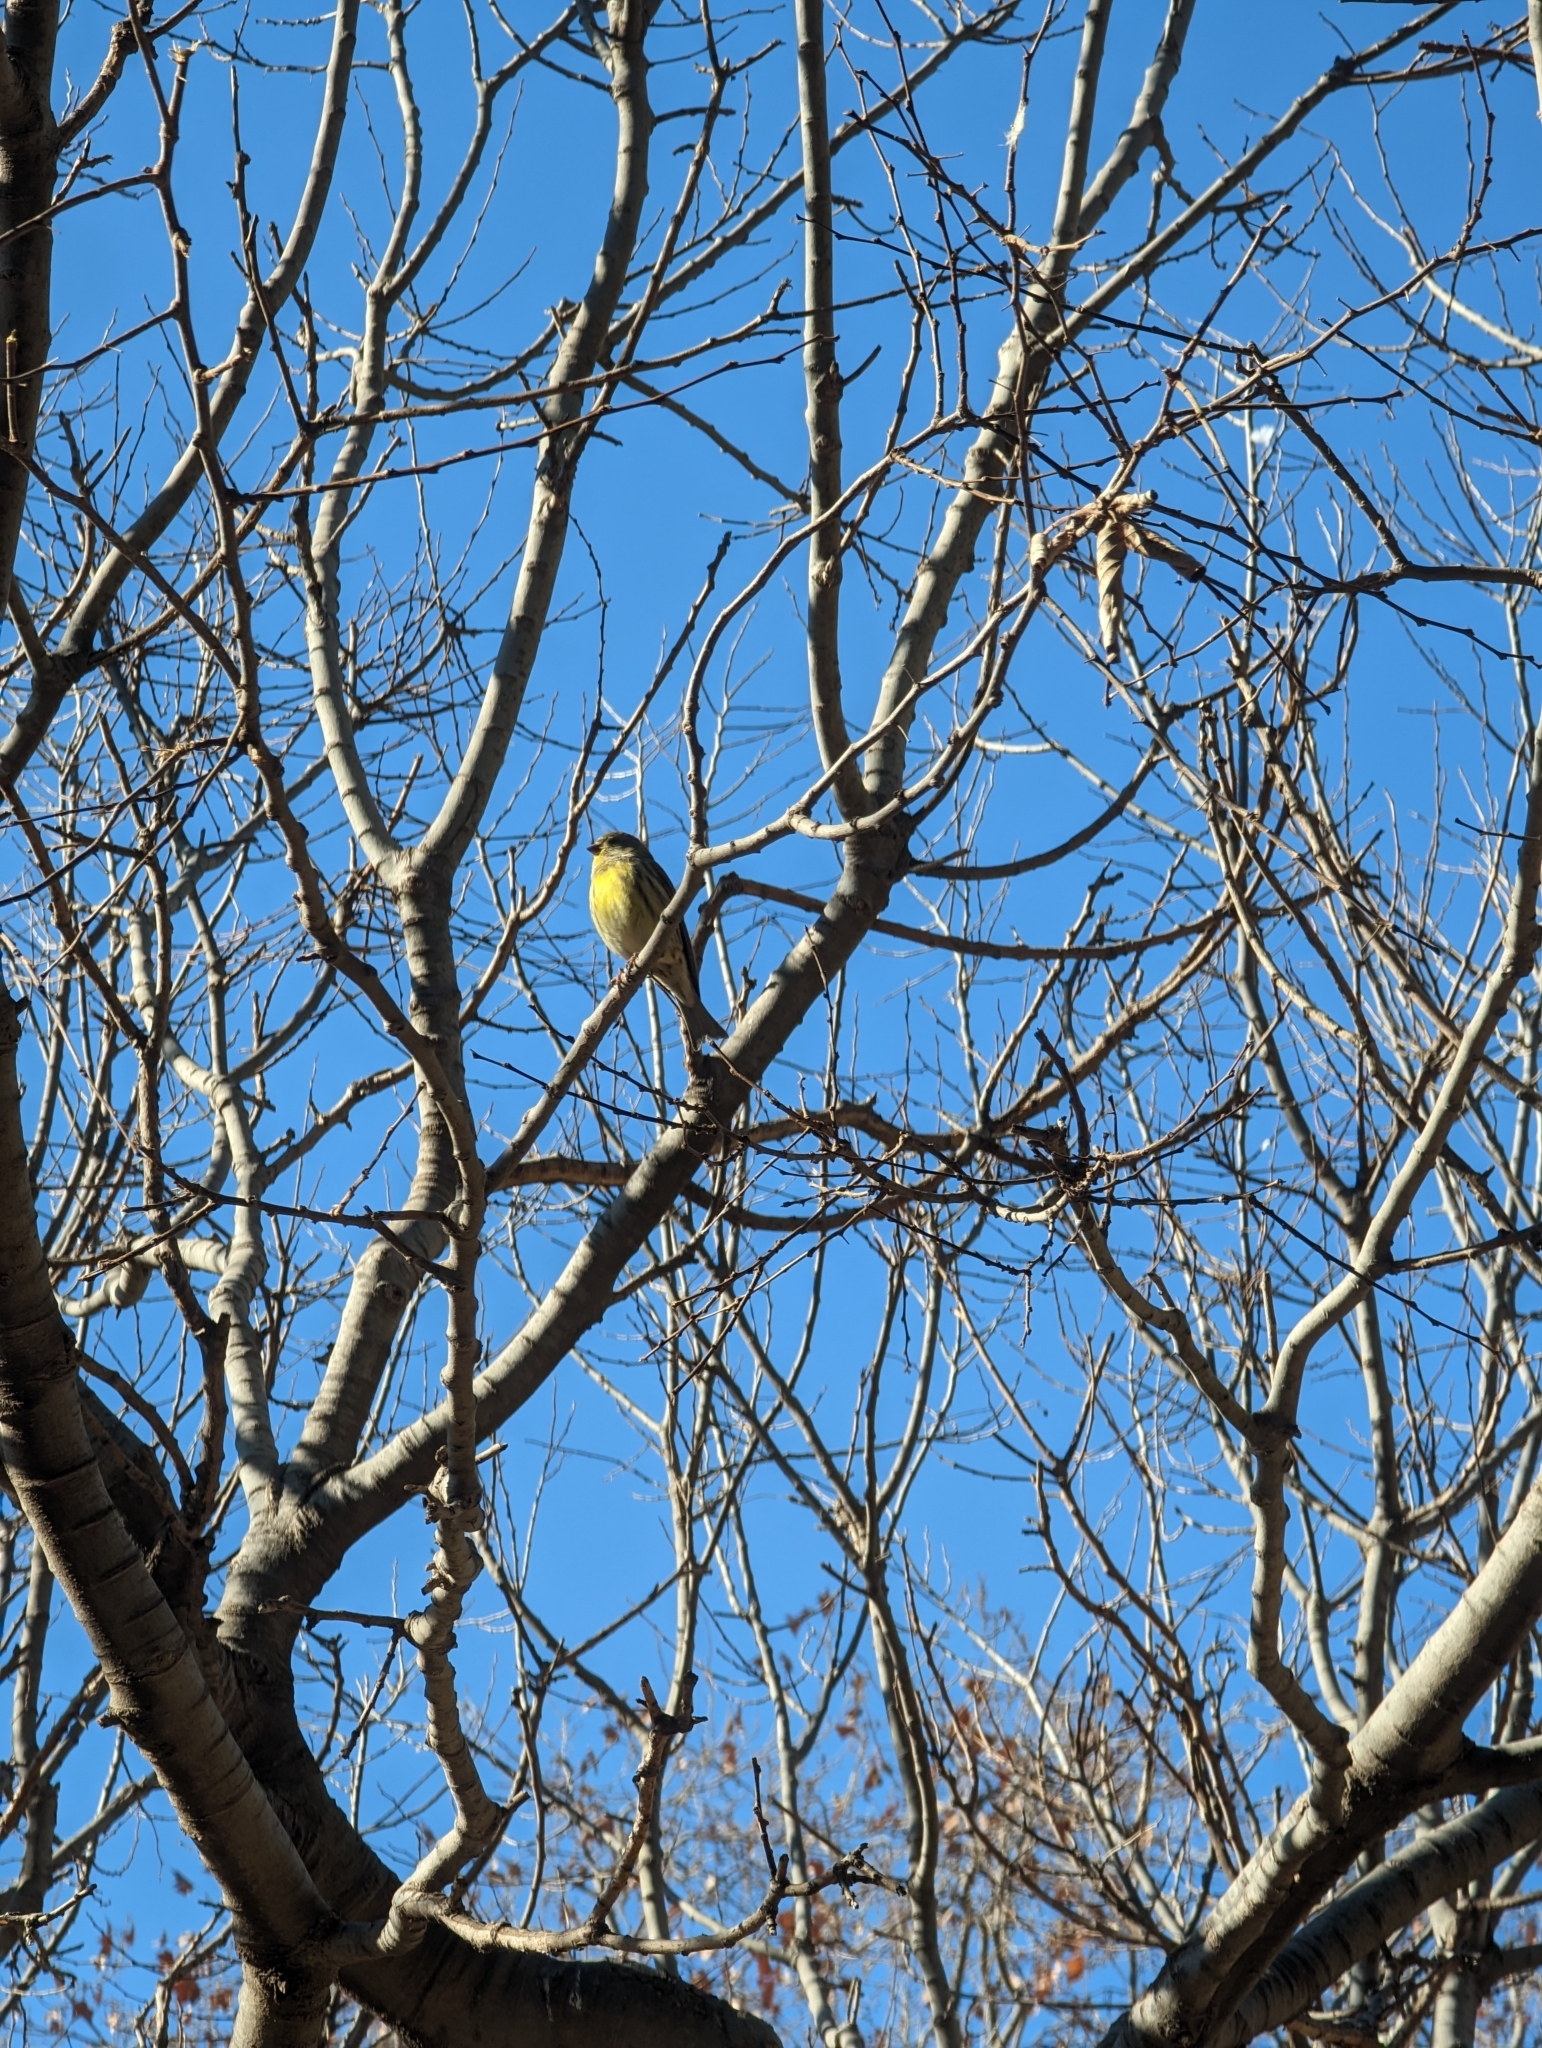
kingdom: Animalia
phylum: Chordata
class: Aves
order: Passeriformes
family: Fringillidae
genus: Serinus
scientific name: Serinus serinus
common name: European serin
